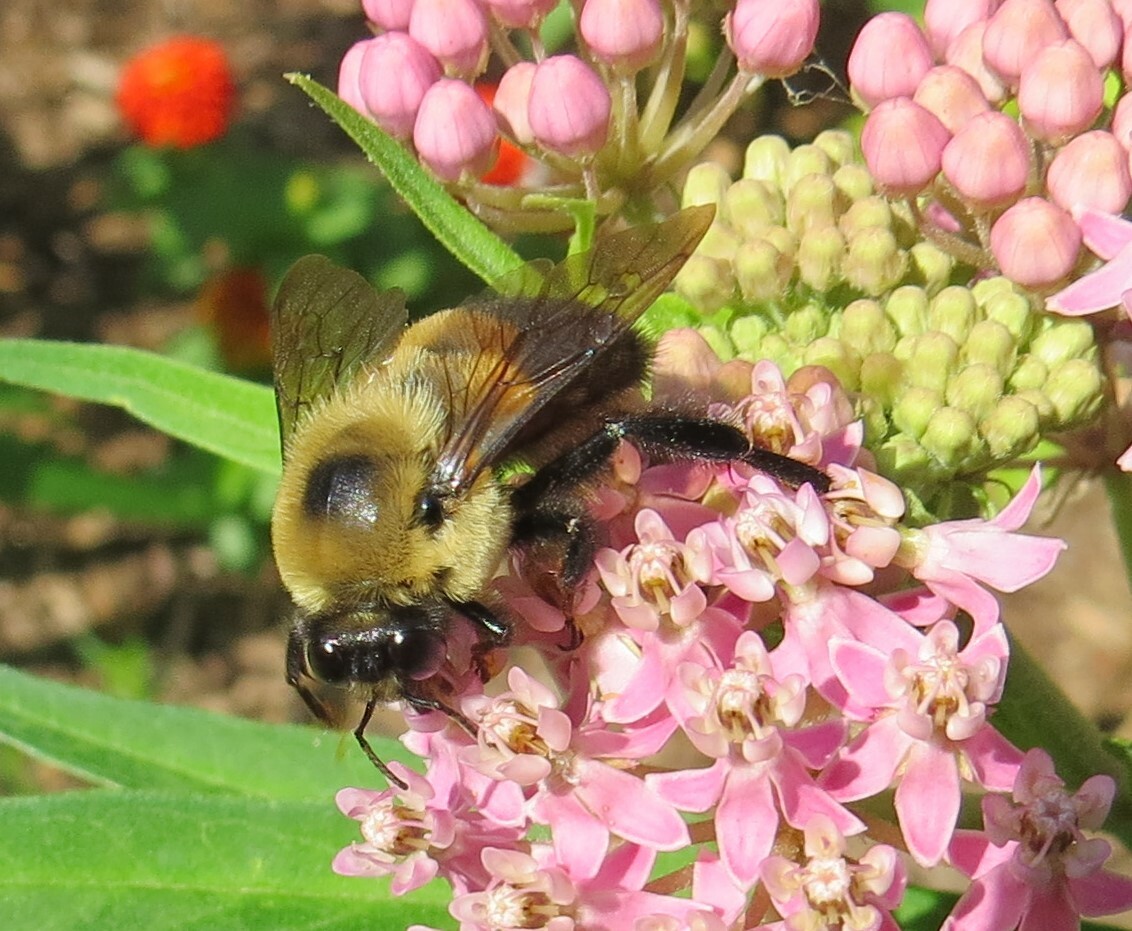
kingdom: Animalia
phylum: Arthropoda
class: Insecta
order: Hymenoptera
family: Apidae
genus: Bombus
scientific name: Bombus griseocollis
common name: Brown-belted bumble bee
